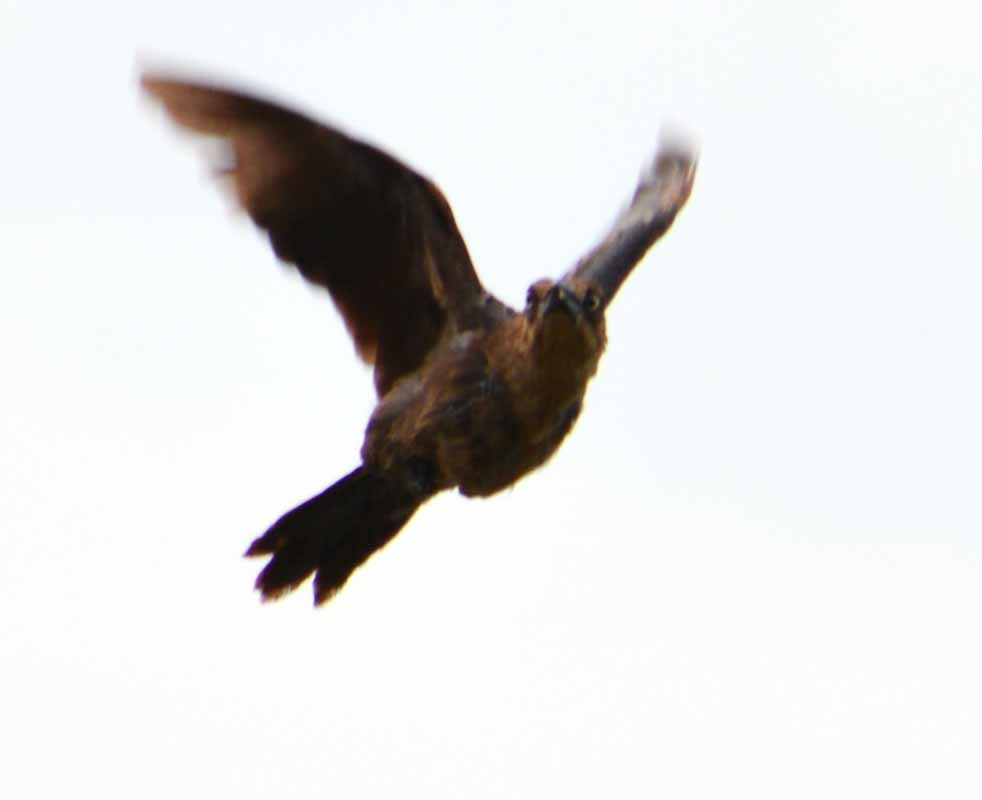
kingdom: Animalia
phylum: Chordata
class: Aves
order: Passeriformes
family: Icteridae
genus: Quiscalus
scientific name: Quiscalus mexicanus
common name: Great-tailed grackle
